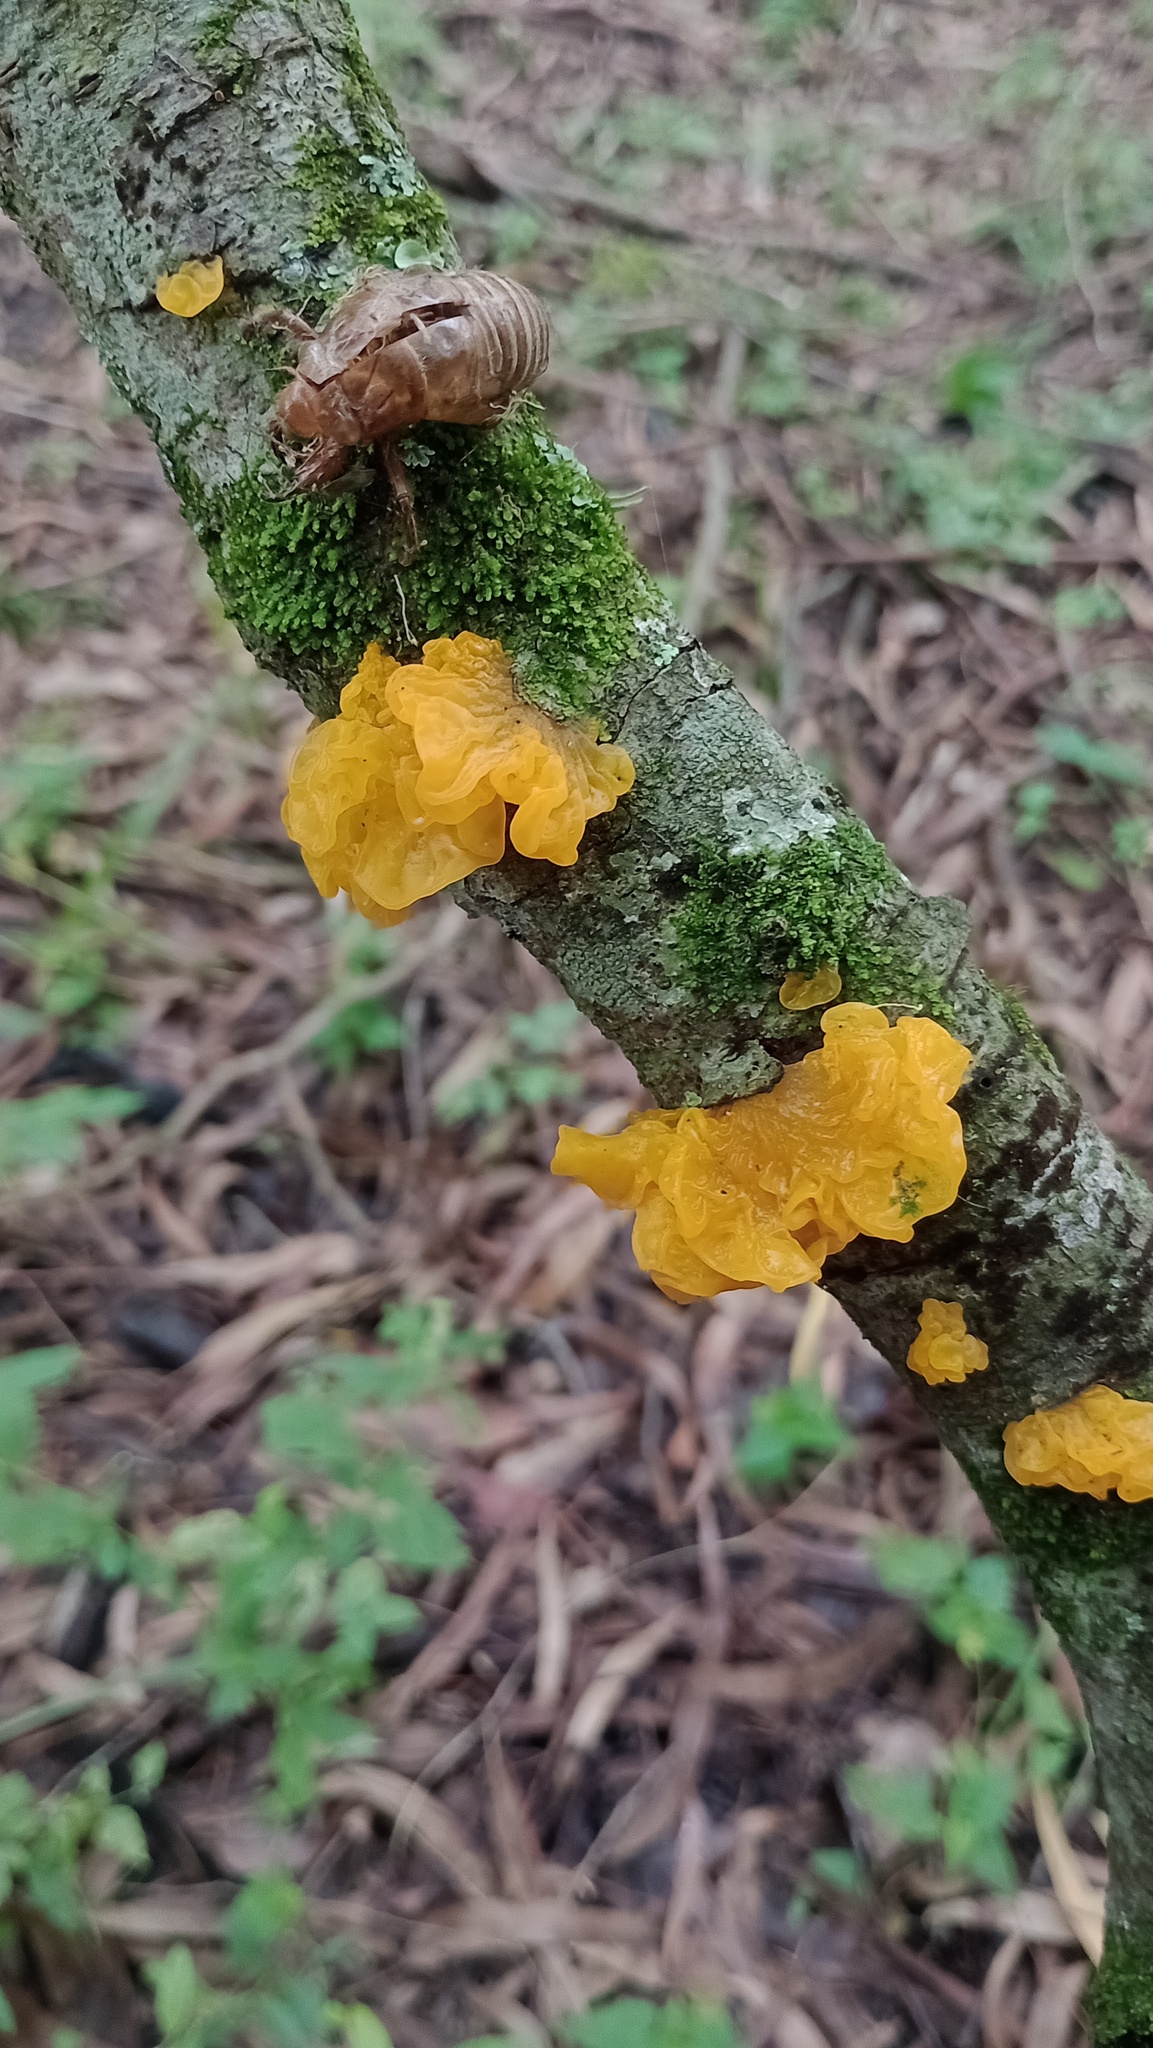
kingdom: Fungi
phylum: Basidiomycota
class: Tremellomycetes
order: Tremellales
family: Tremellaceae
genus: Tremella
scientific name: Tremella mesenterica
